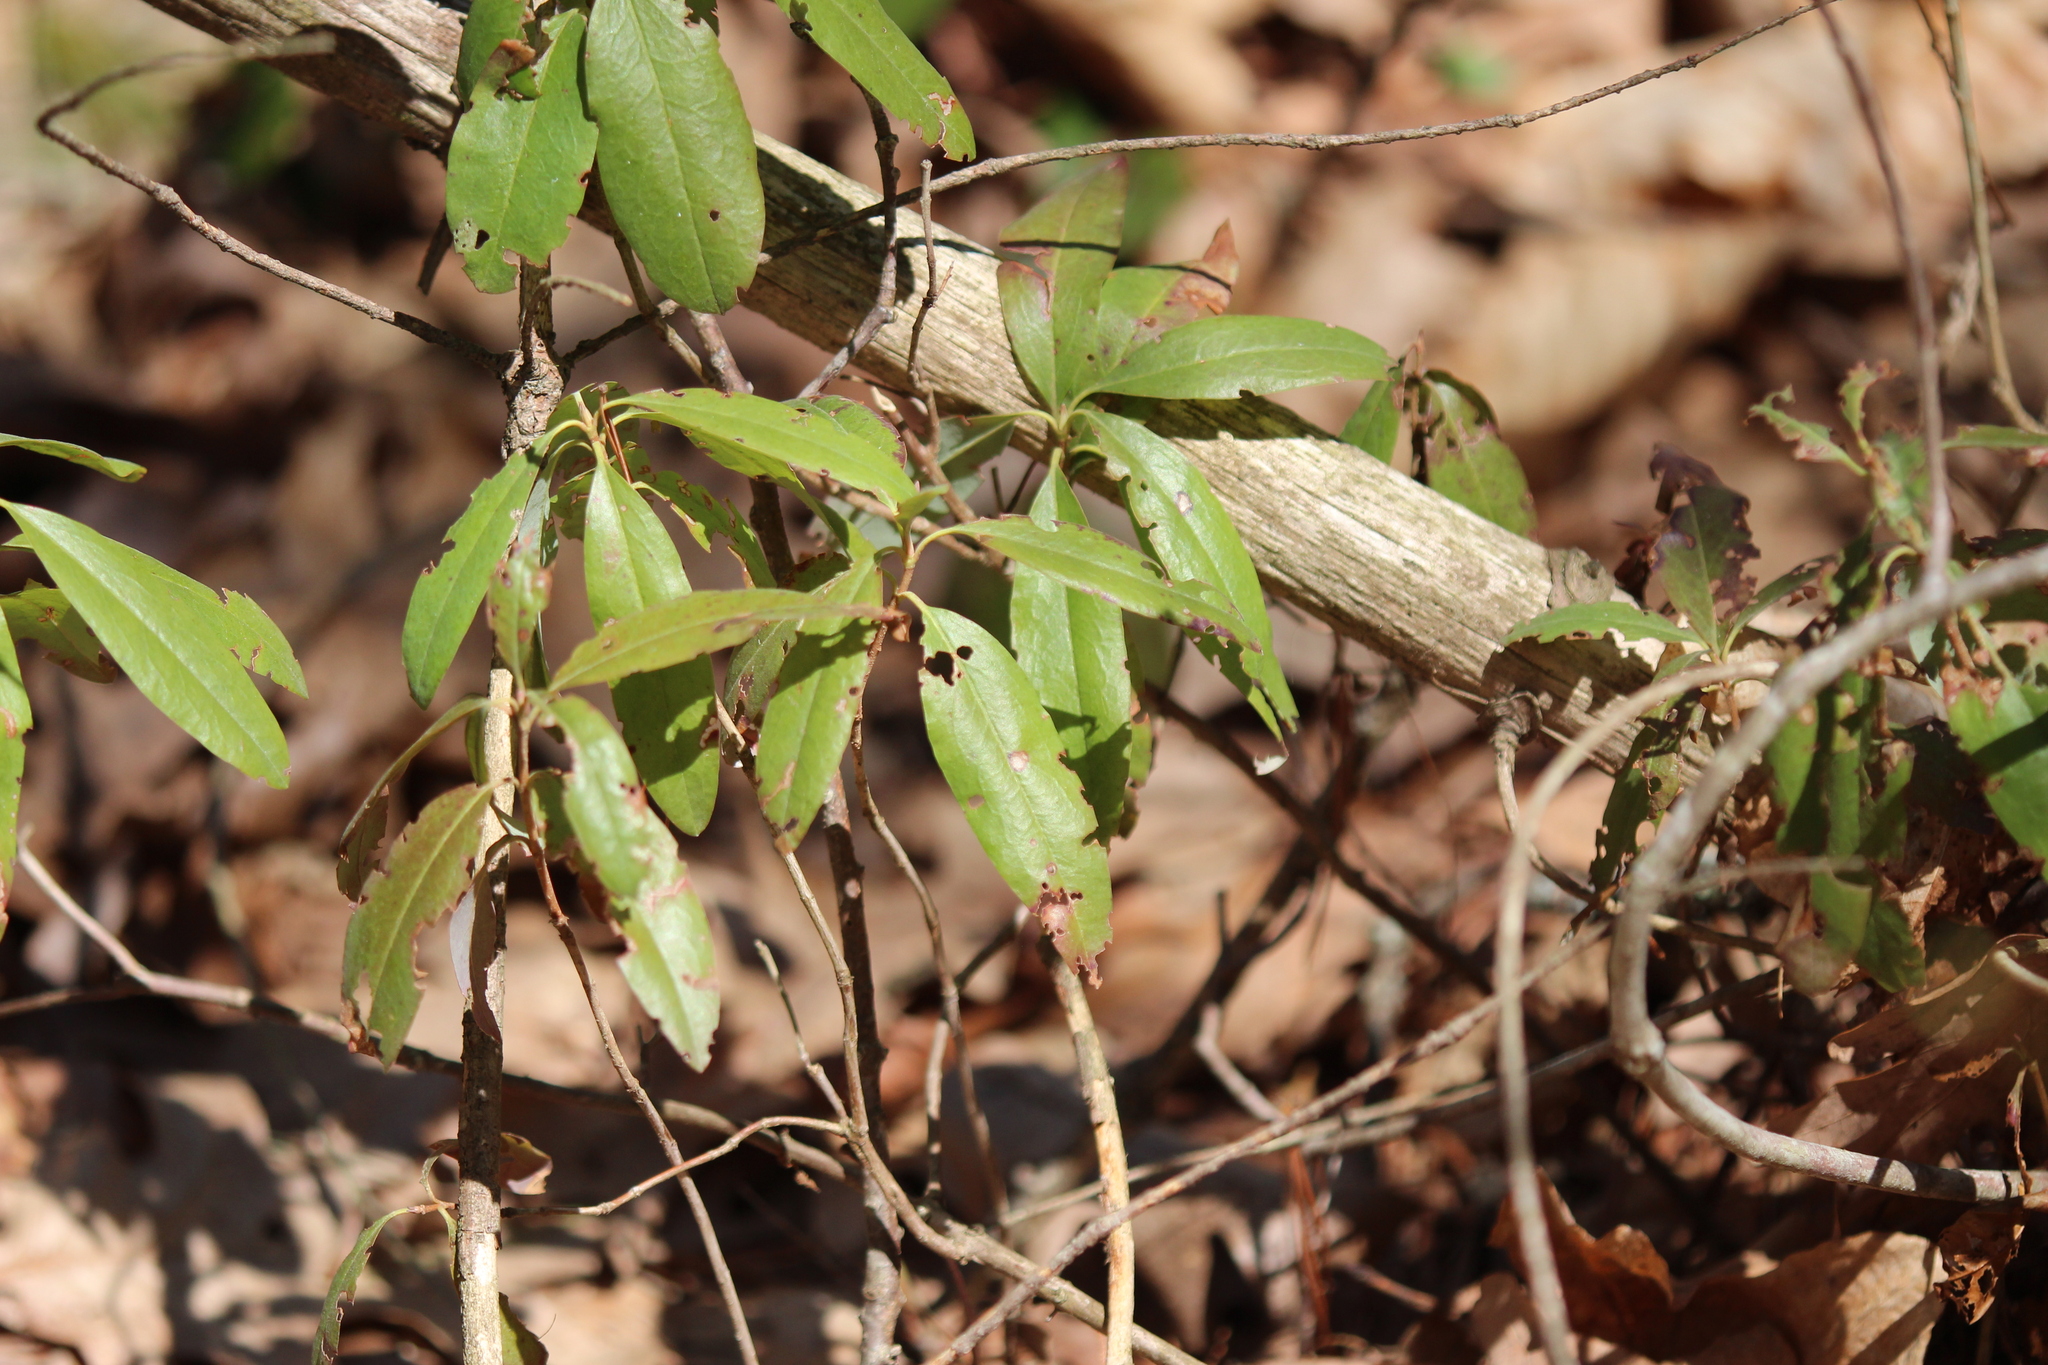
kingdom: Plantae
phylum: Tracheophyta
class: Magnoliopsida
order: Ericales
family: Ericaceae
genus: Kalmia
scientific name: Kalmia angustifolia
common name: Sheep-laurel
